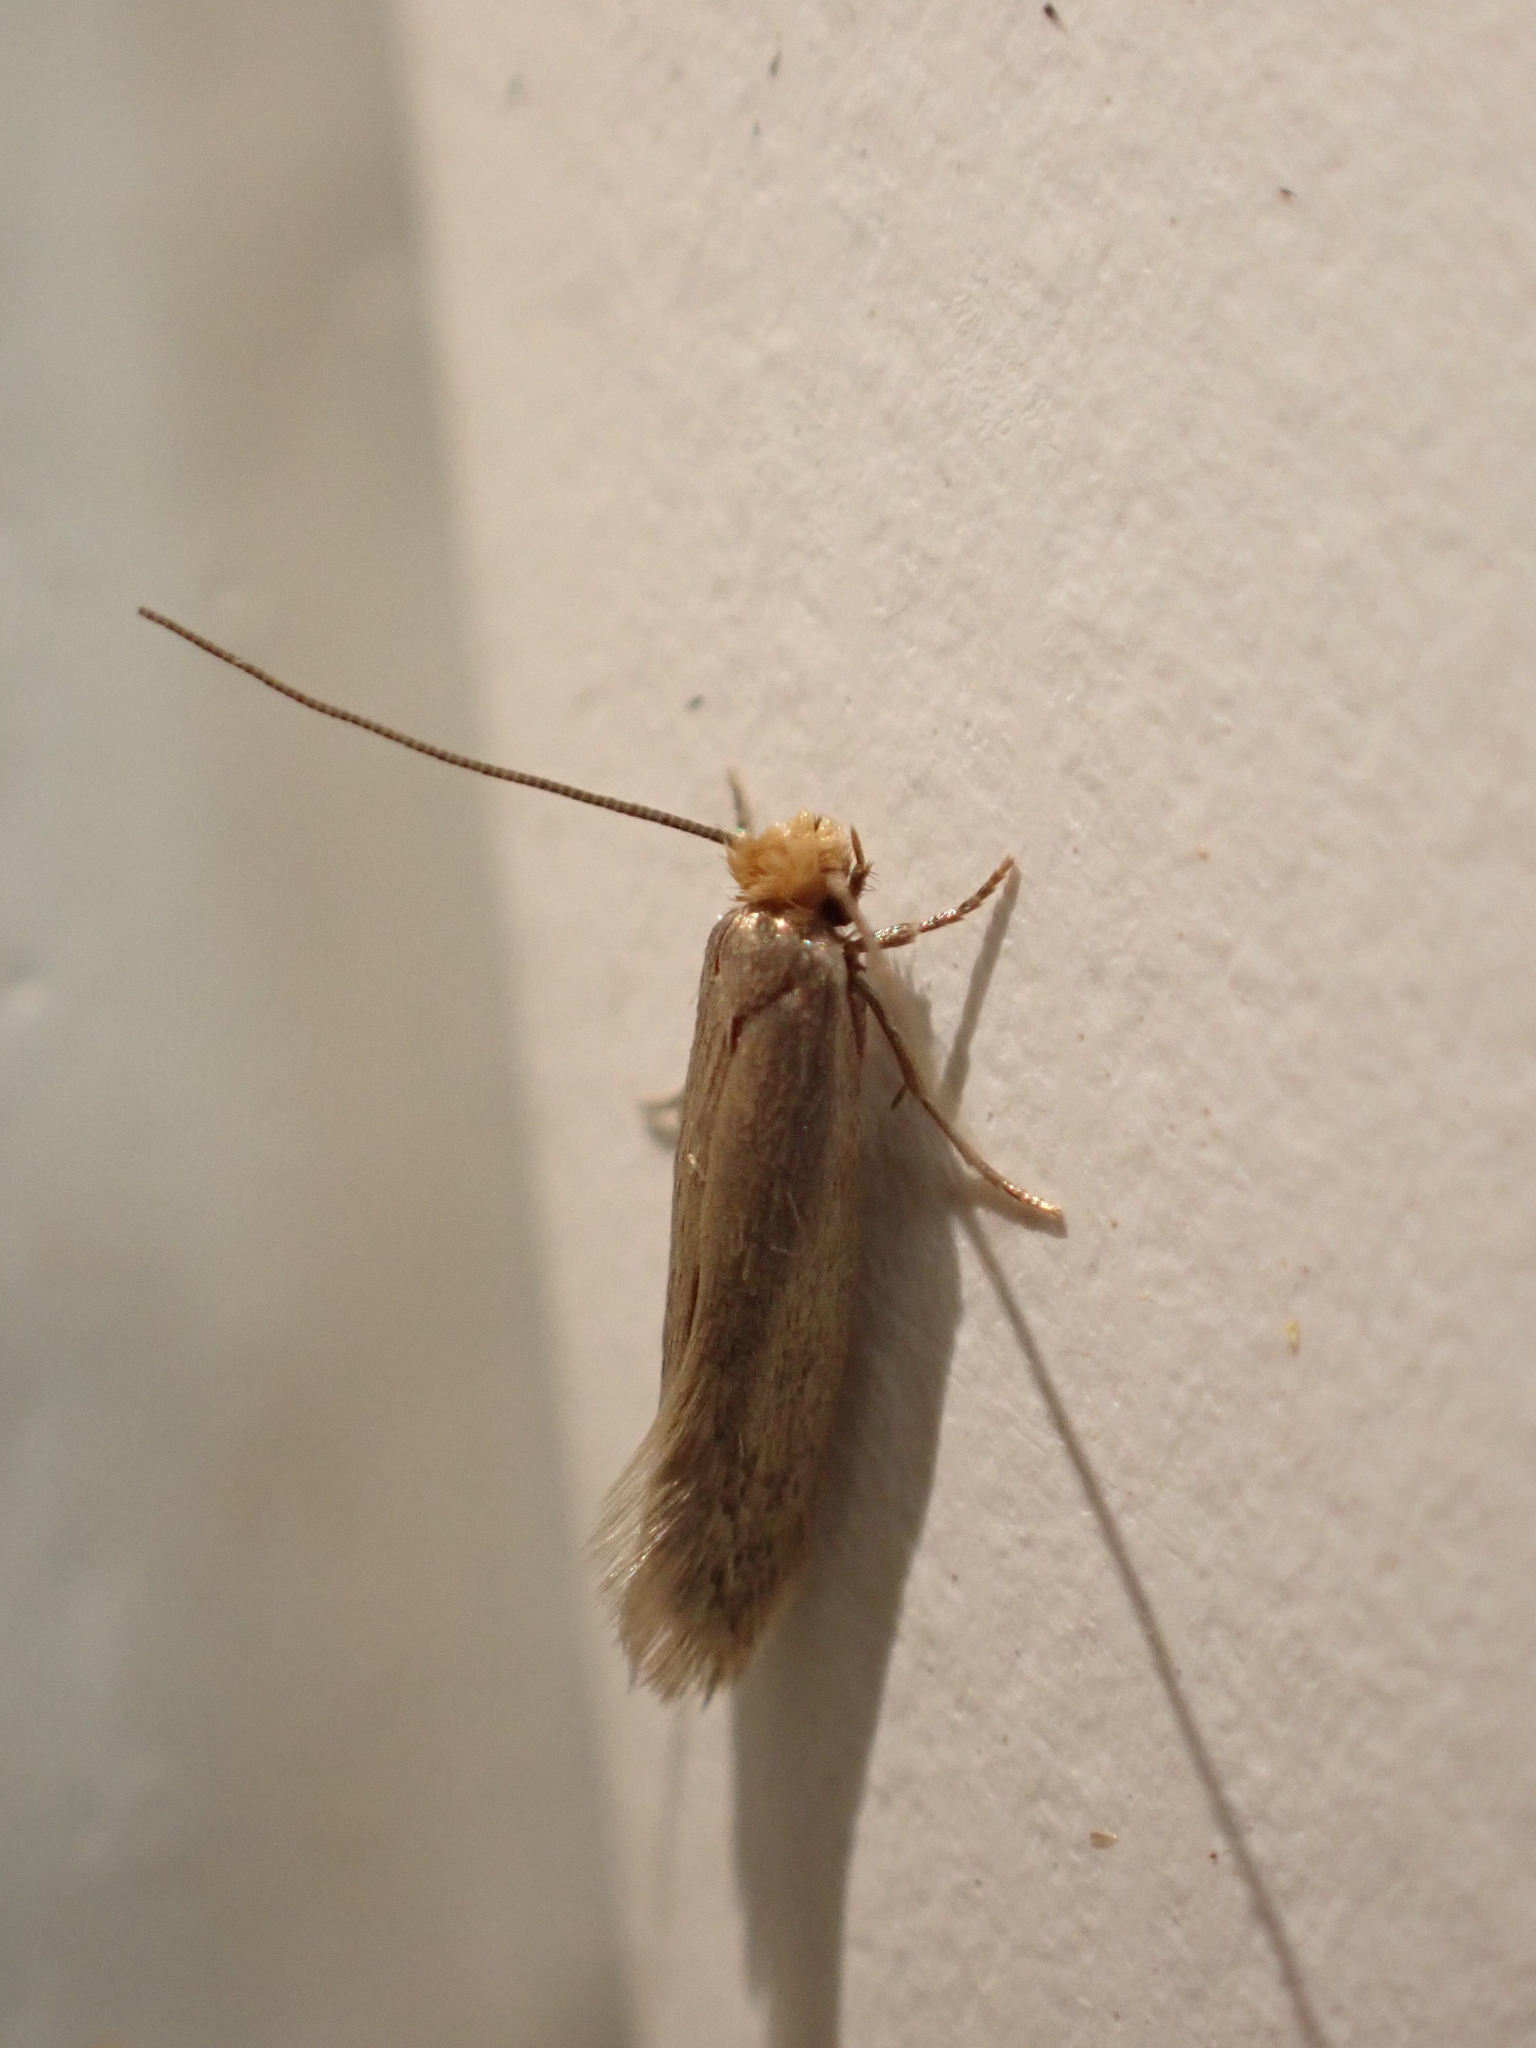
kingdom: Animalia
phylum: Arthropoda
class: Insecta
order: Lepidoptera
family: Tineidae
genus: Tineola
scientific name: Tineola bisselliella
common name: Webbing clothes moth
